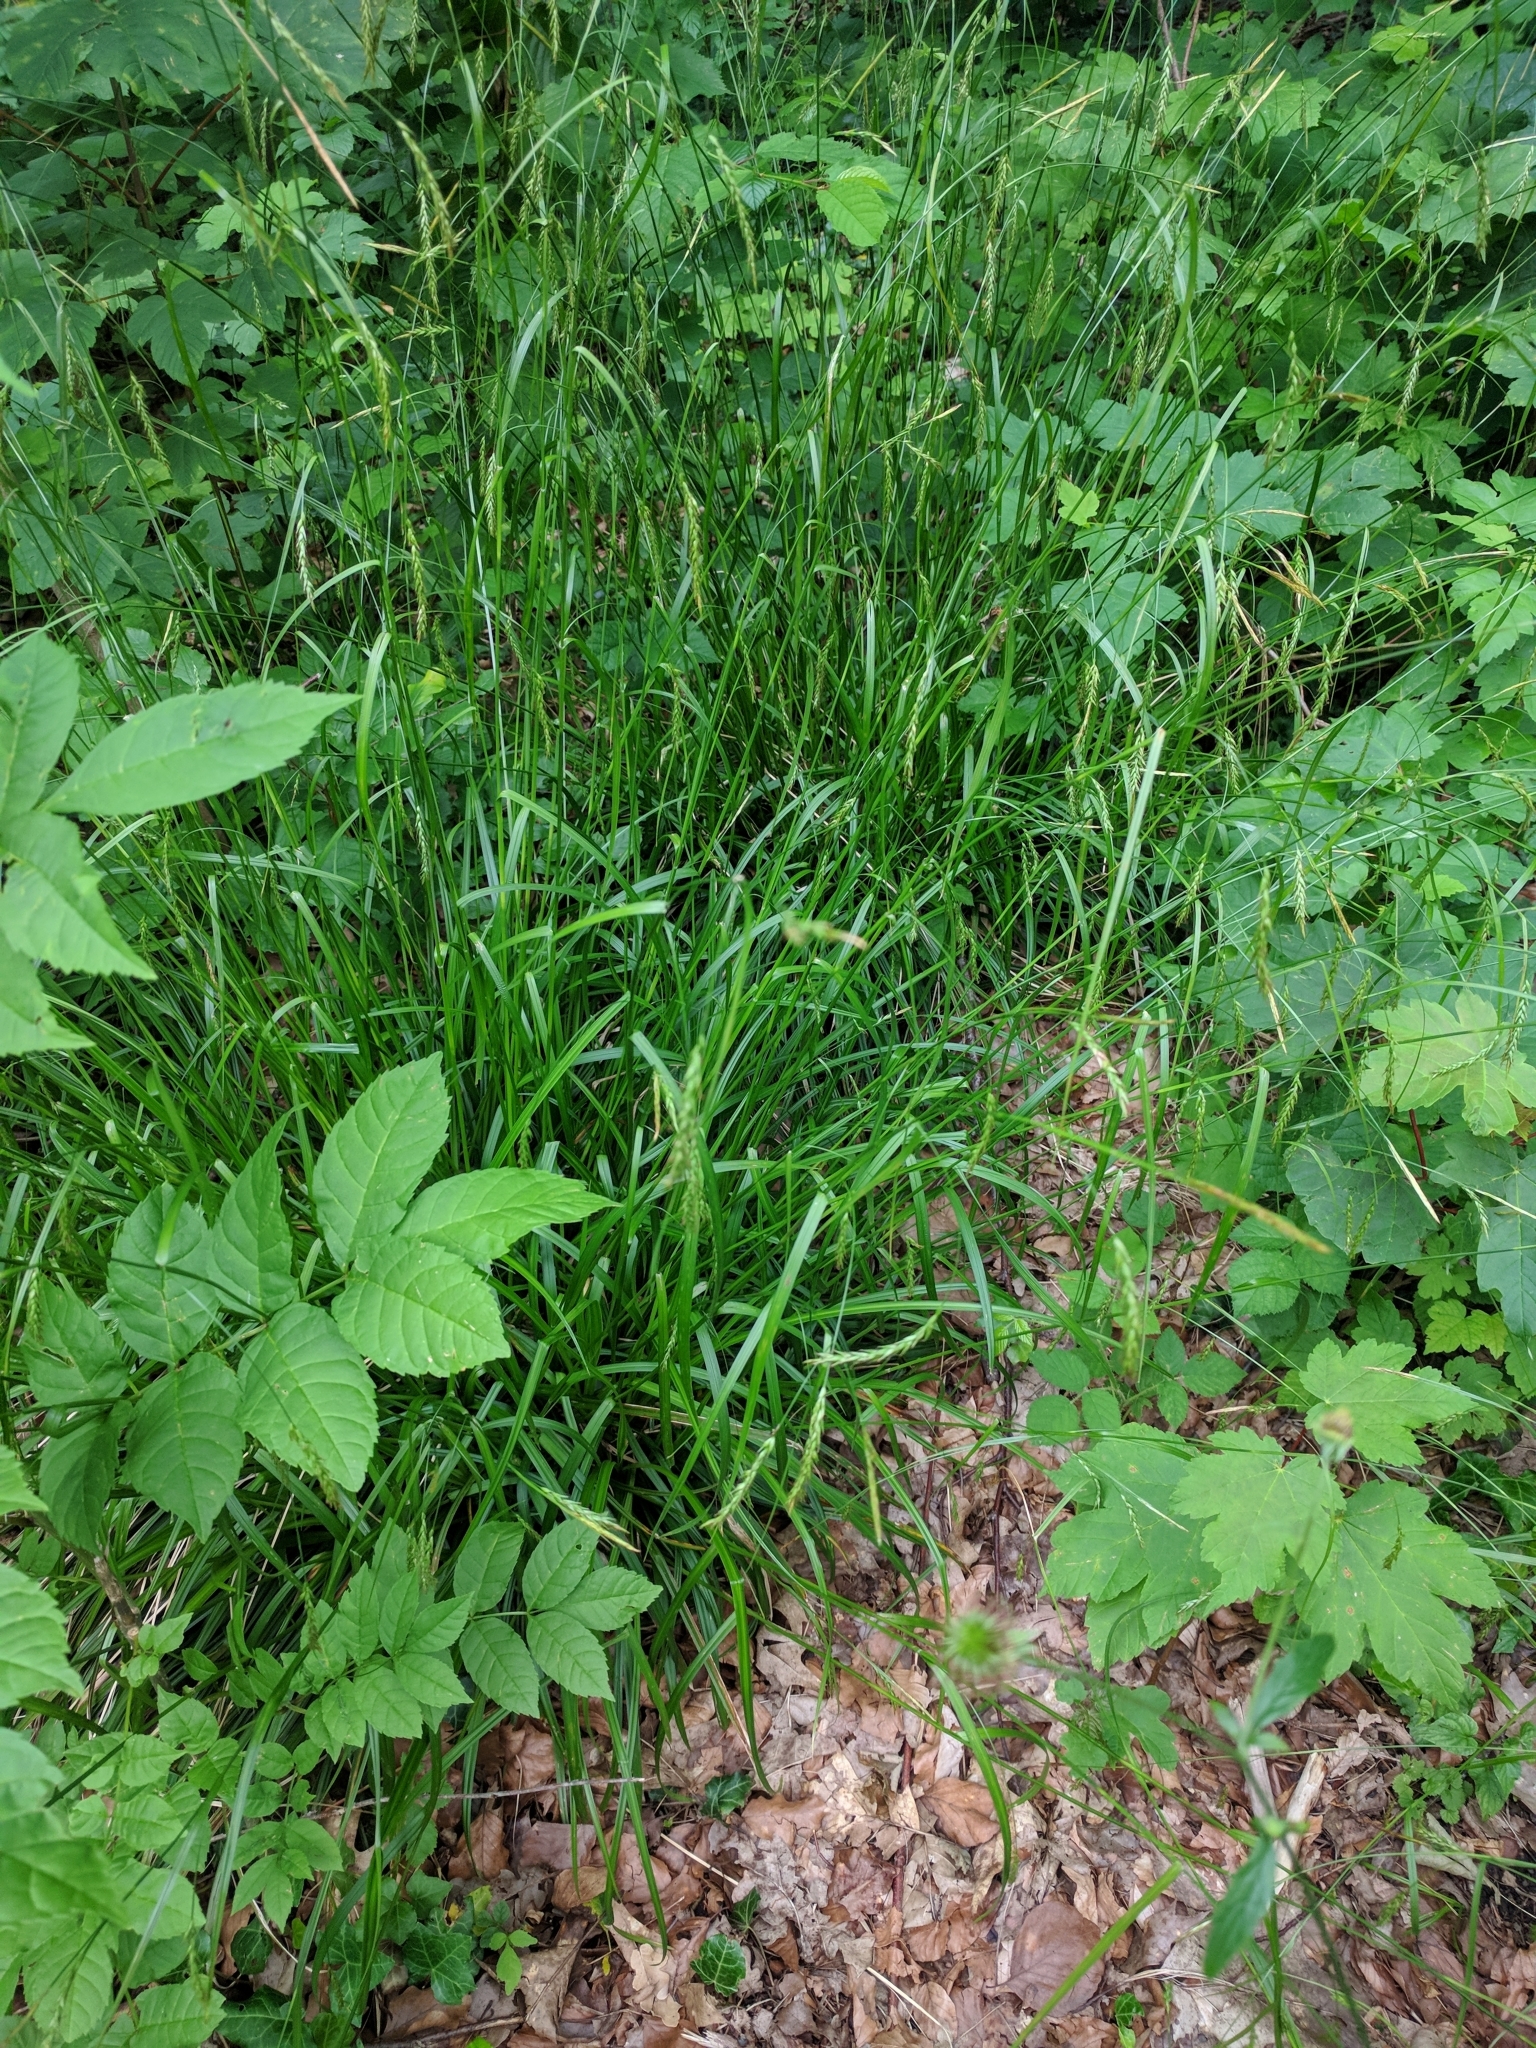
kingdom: Plantae
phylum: Tracheophyta
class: Liliopsida
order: Poales
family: Cyperaceae
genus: Carex
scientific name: Carex sylvatica
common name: Wood-sedge
